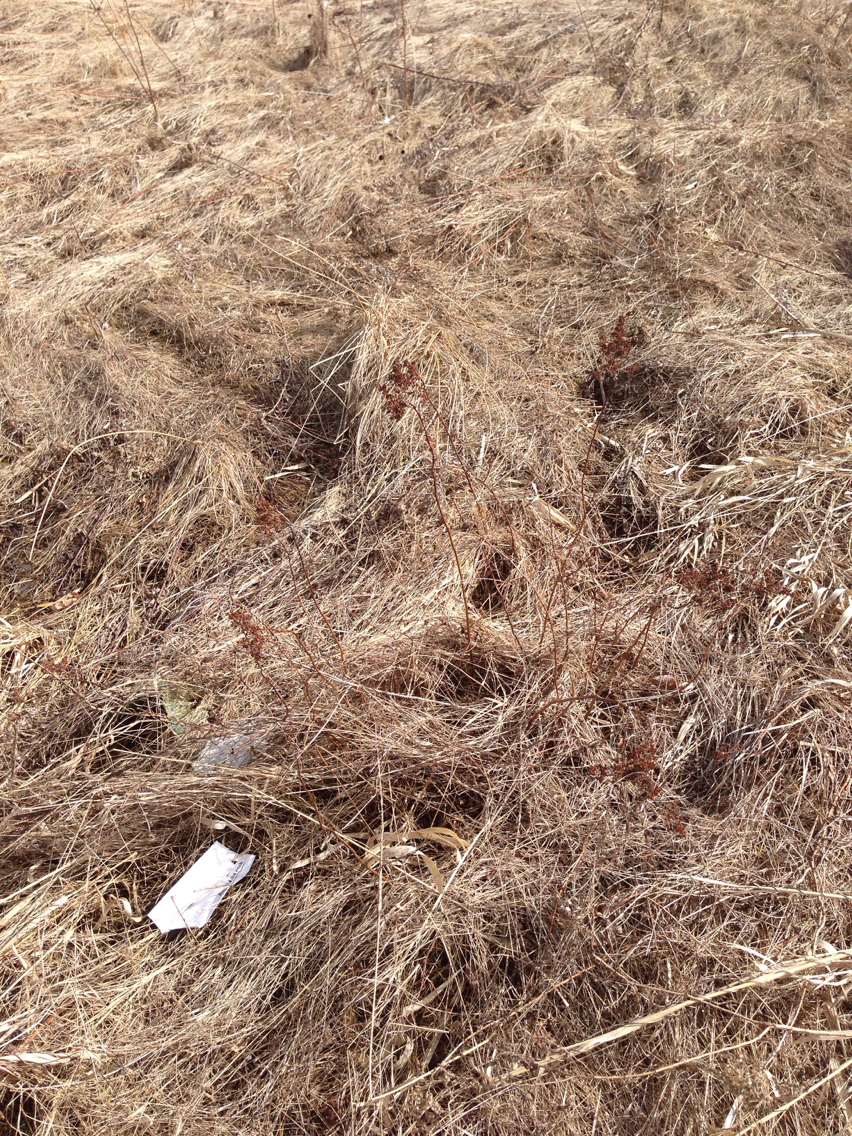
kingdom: Plantae
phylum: Tracheophyta
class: Magnoliopsida
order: Rosales
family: Rosaceae
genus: Spiraea
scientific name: Spiraea
